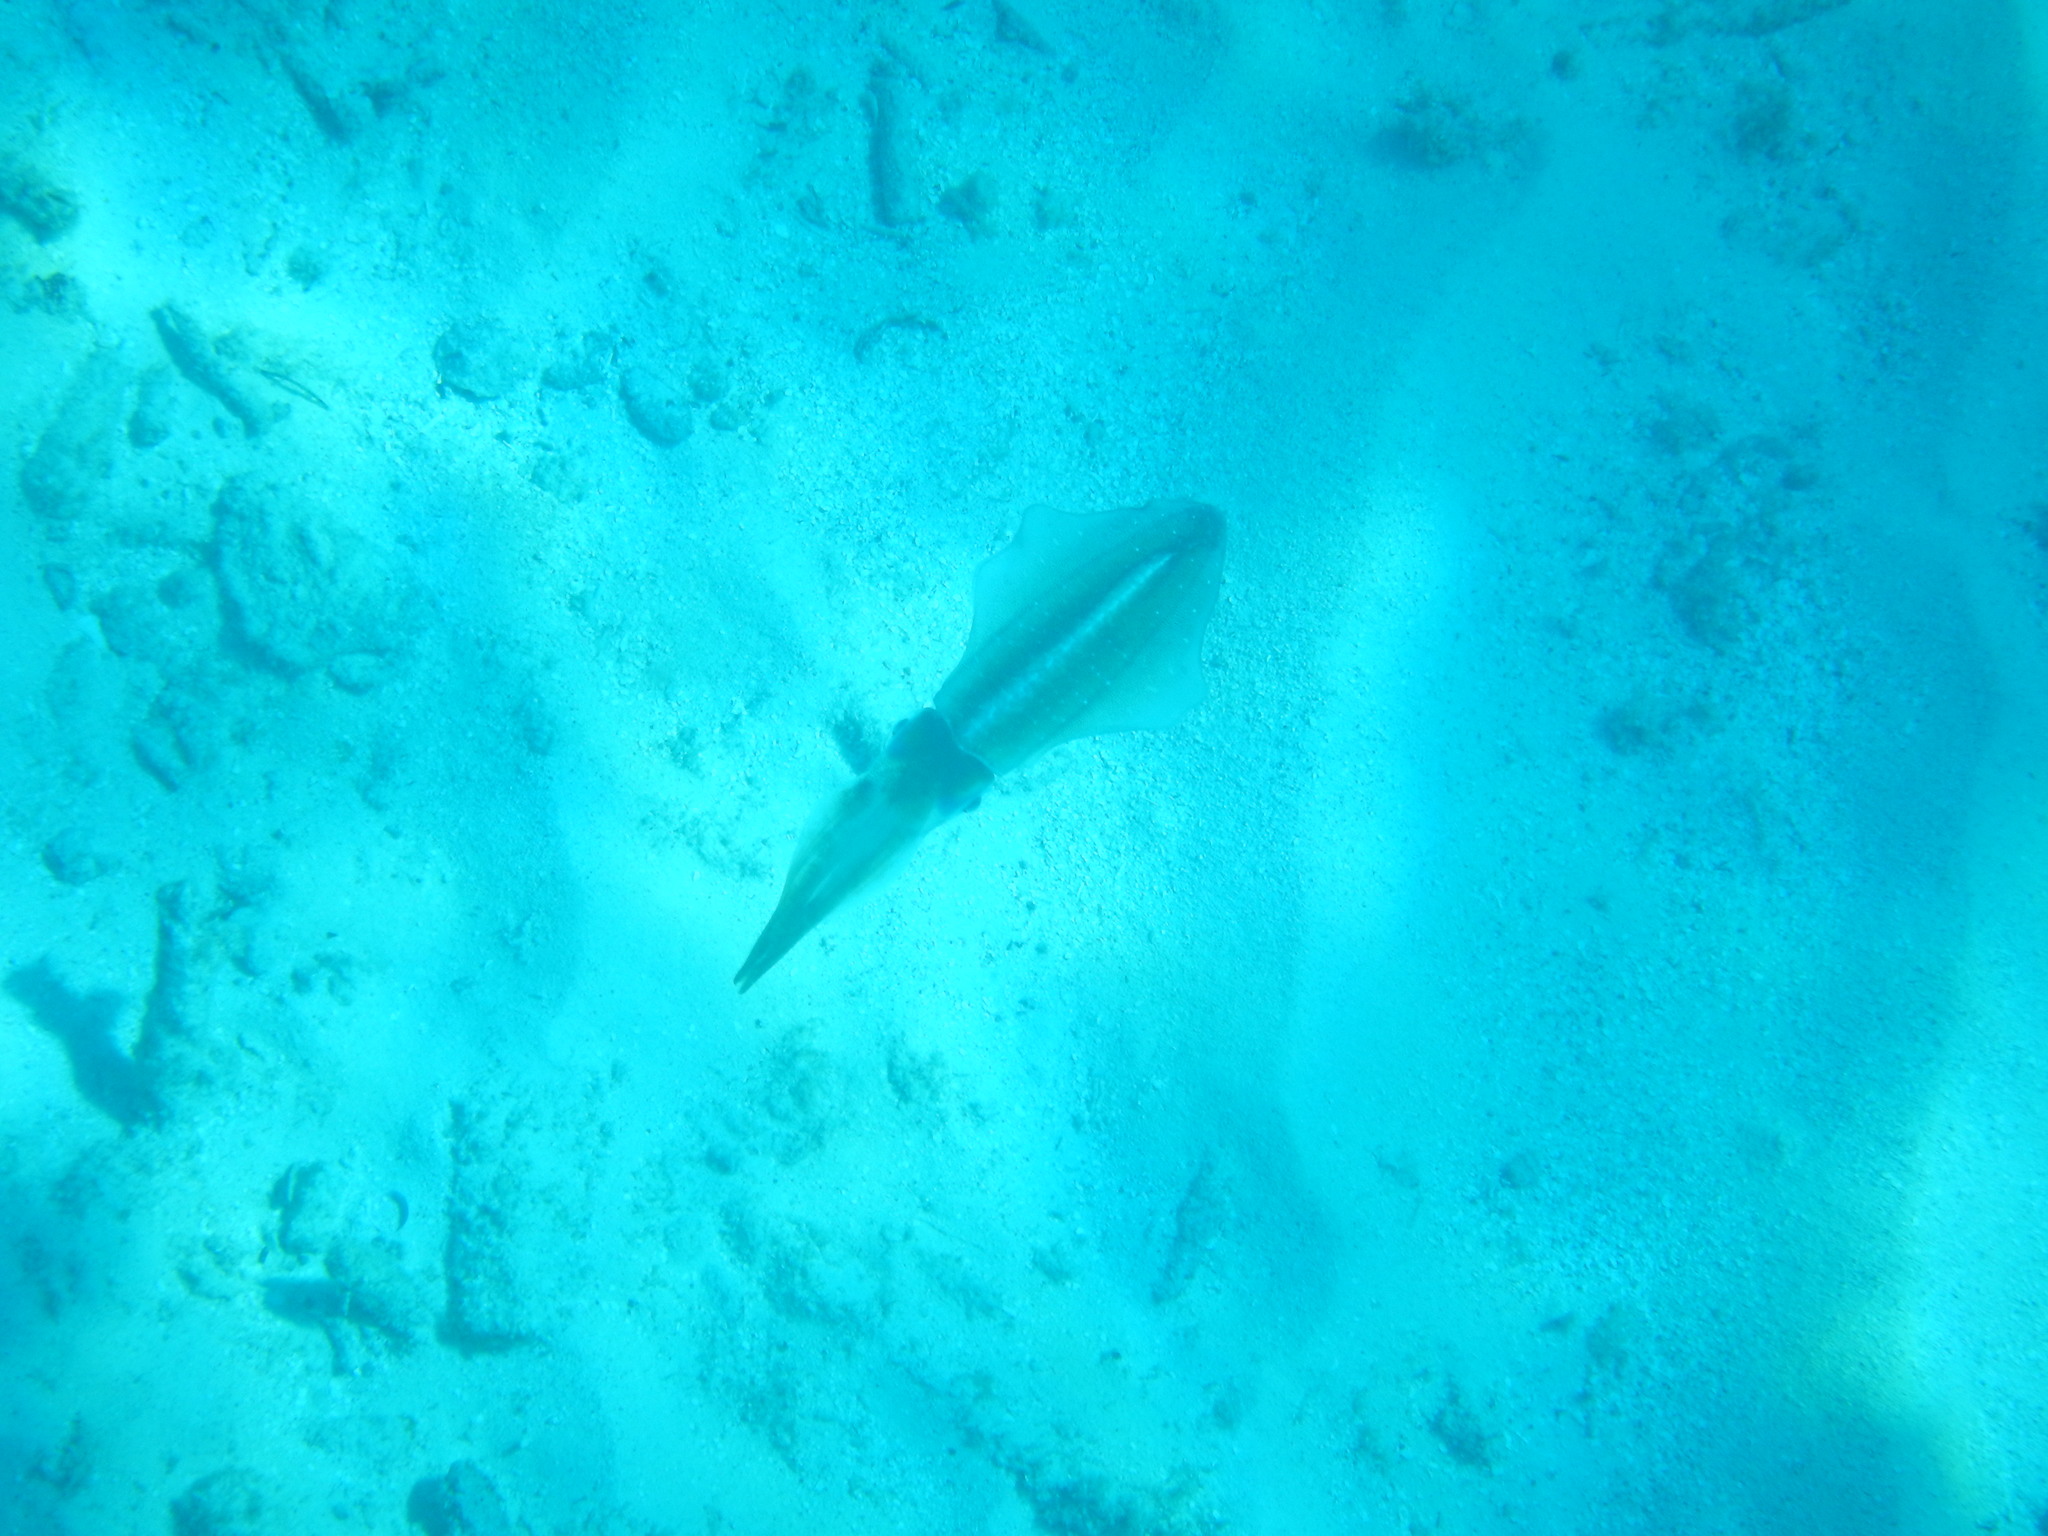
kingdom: Animalia
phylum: Mollusca
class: Cephalopoda
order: Myopsida
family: Loliginidae
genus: Sepioteuthis
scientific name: Sepioteuthis sepioidea
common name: Caribbean reef squid
